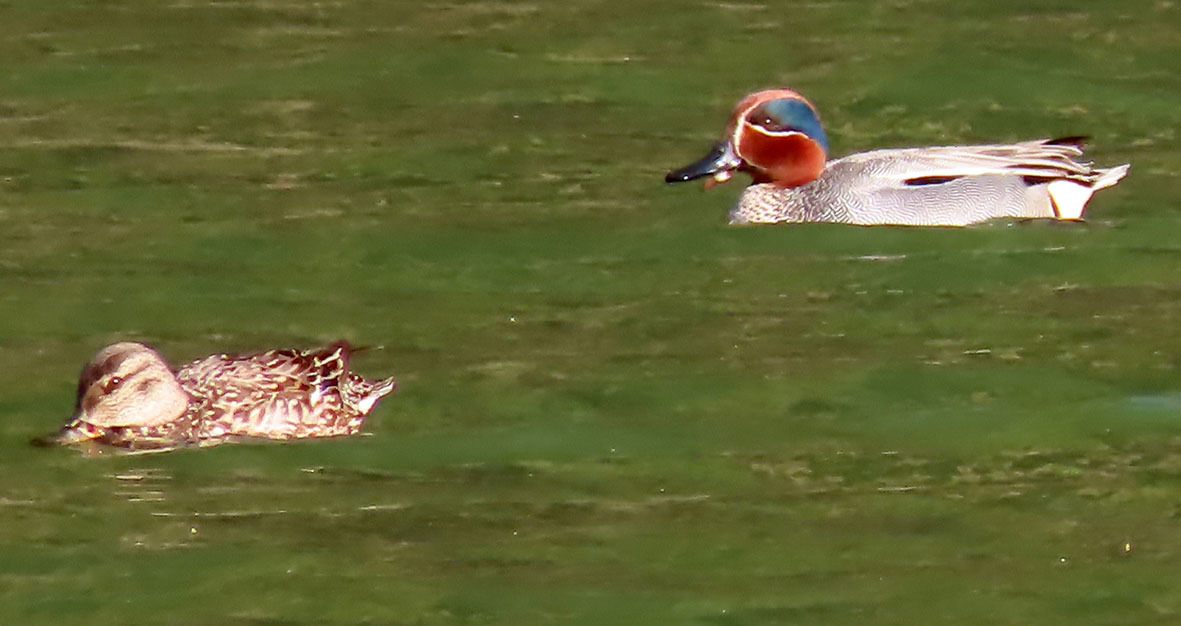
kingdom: Animalia
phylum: Chordata
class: Aves
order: Anseriformes
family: Anatidae
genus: Anas
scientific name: Anas crecca
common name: Eurasian teal
